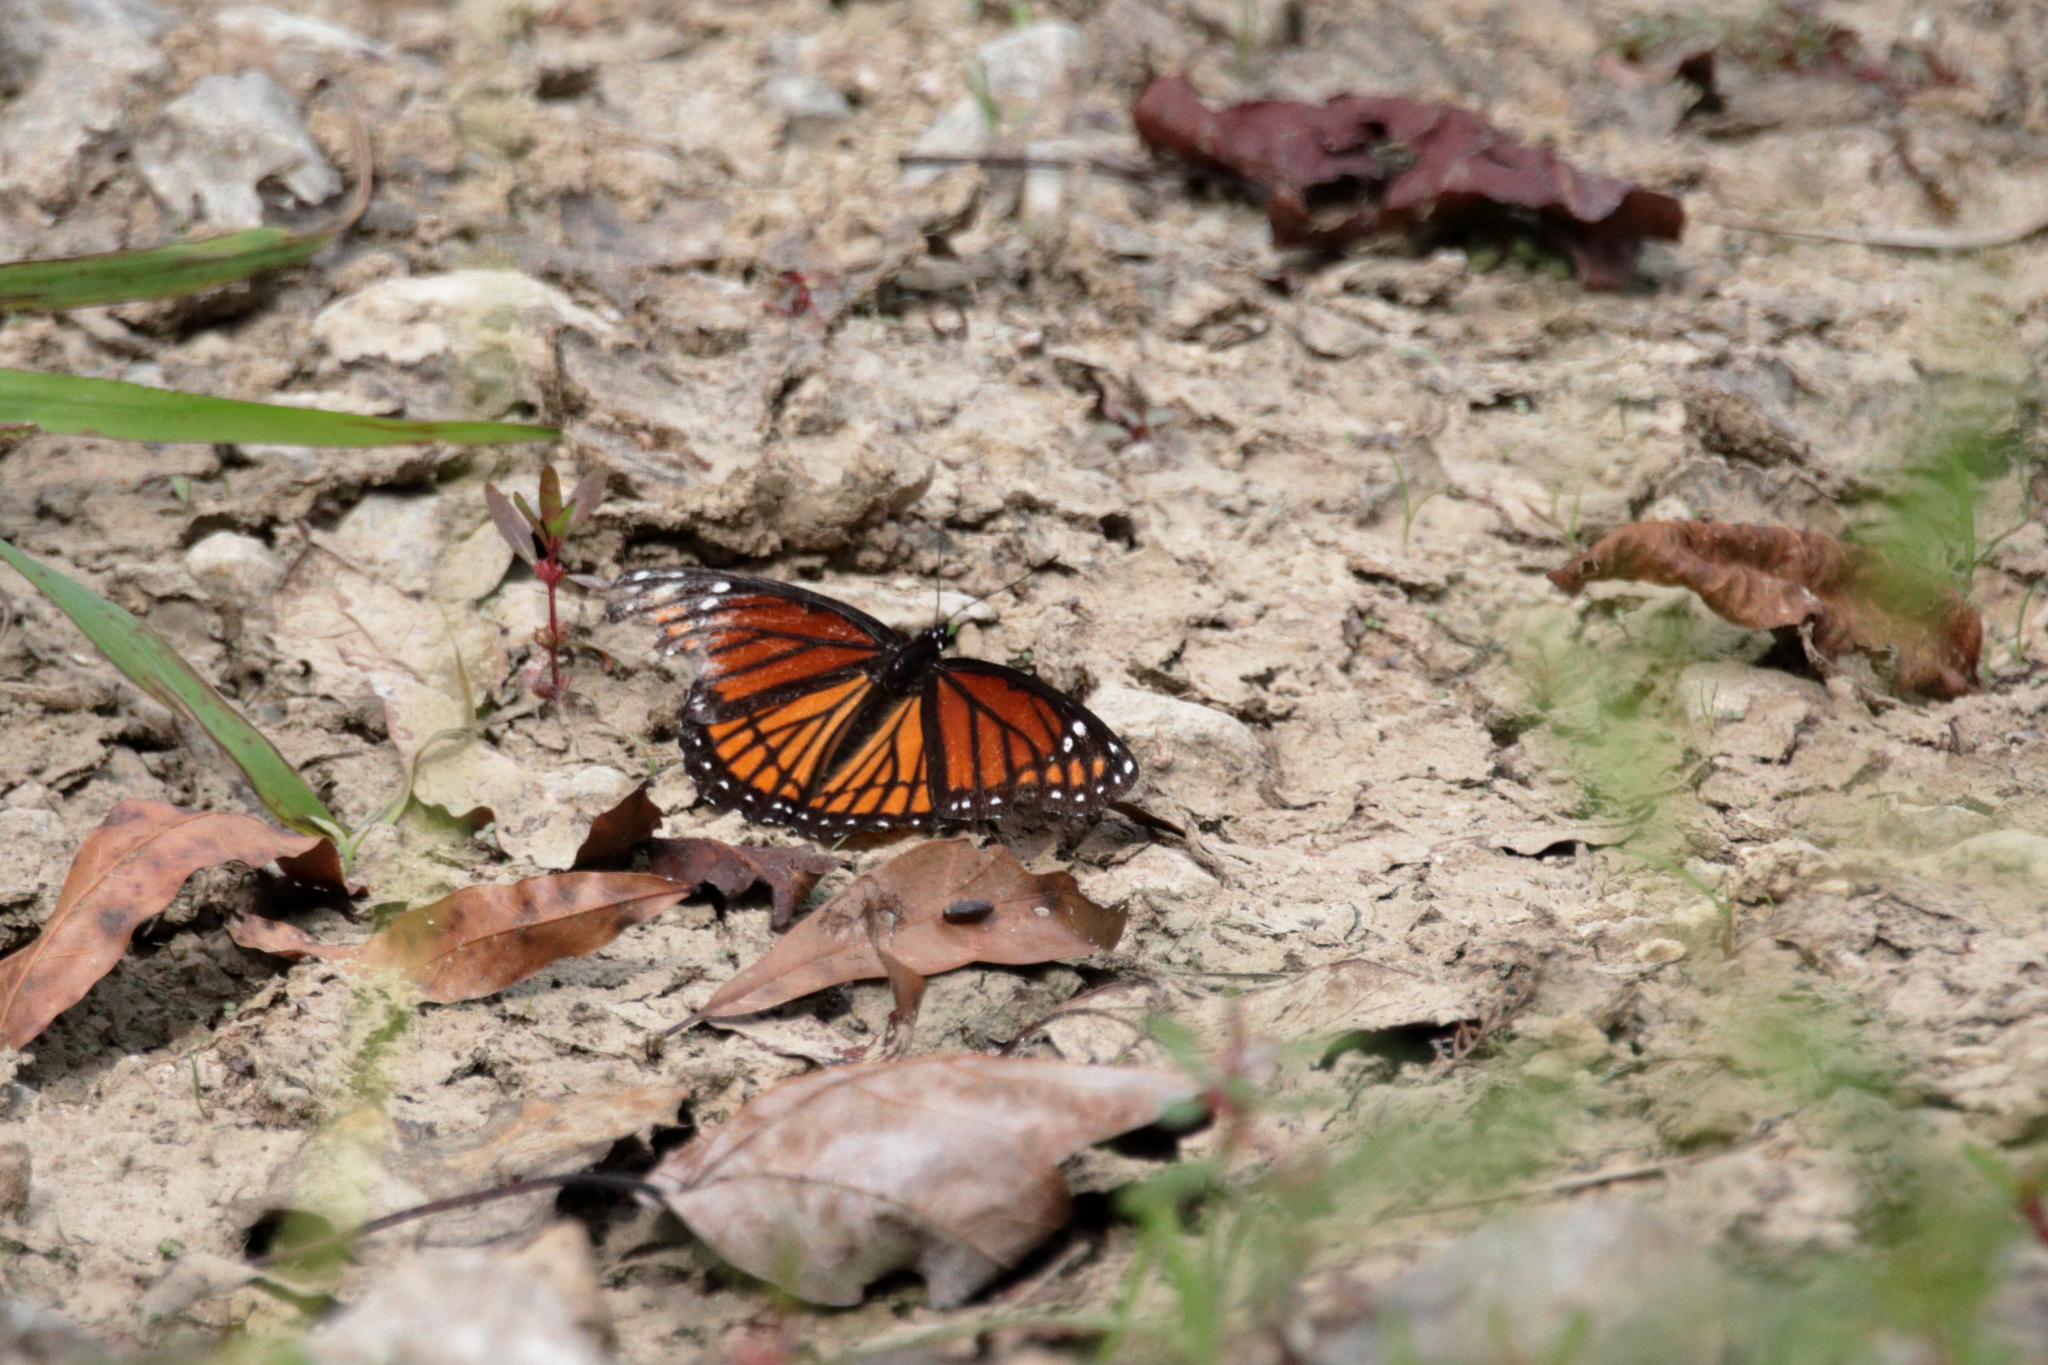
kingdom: Animalia
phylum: Arthropoda
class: Insecta
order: Lepidoptera
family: Nymphalidae
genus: Limenitis
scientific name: Limenitis archippus
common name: Viceroy
